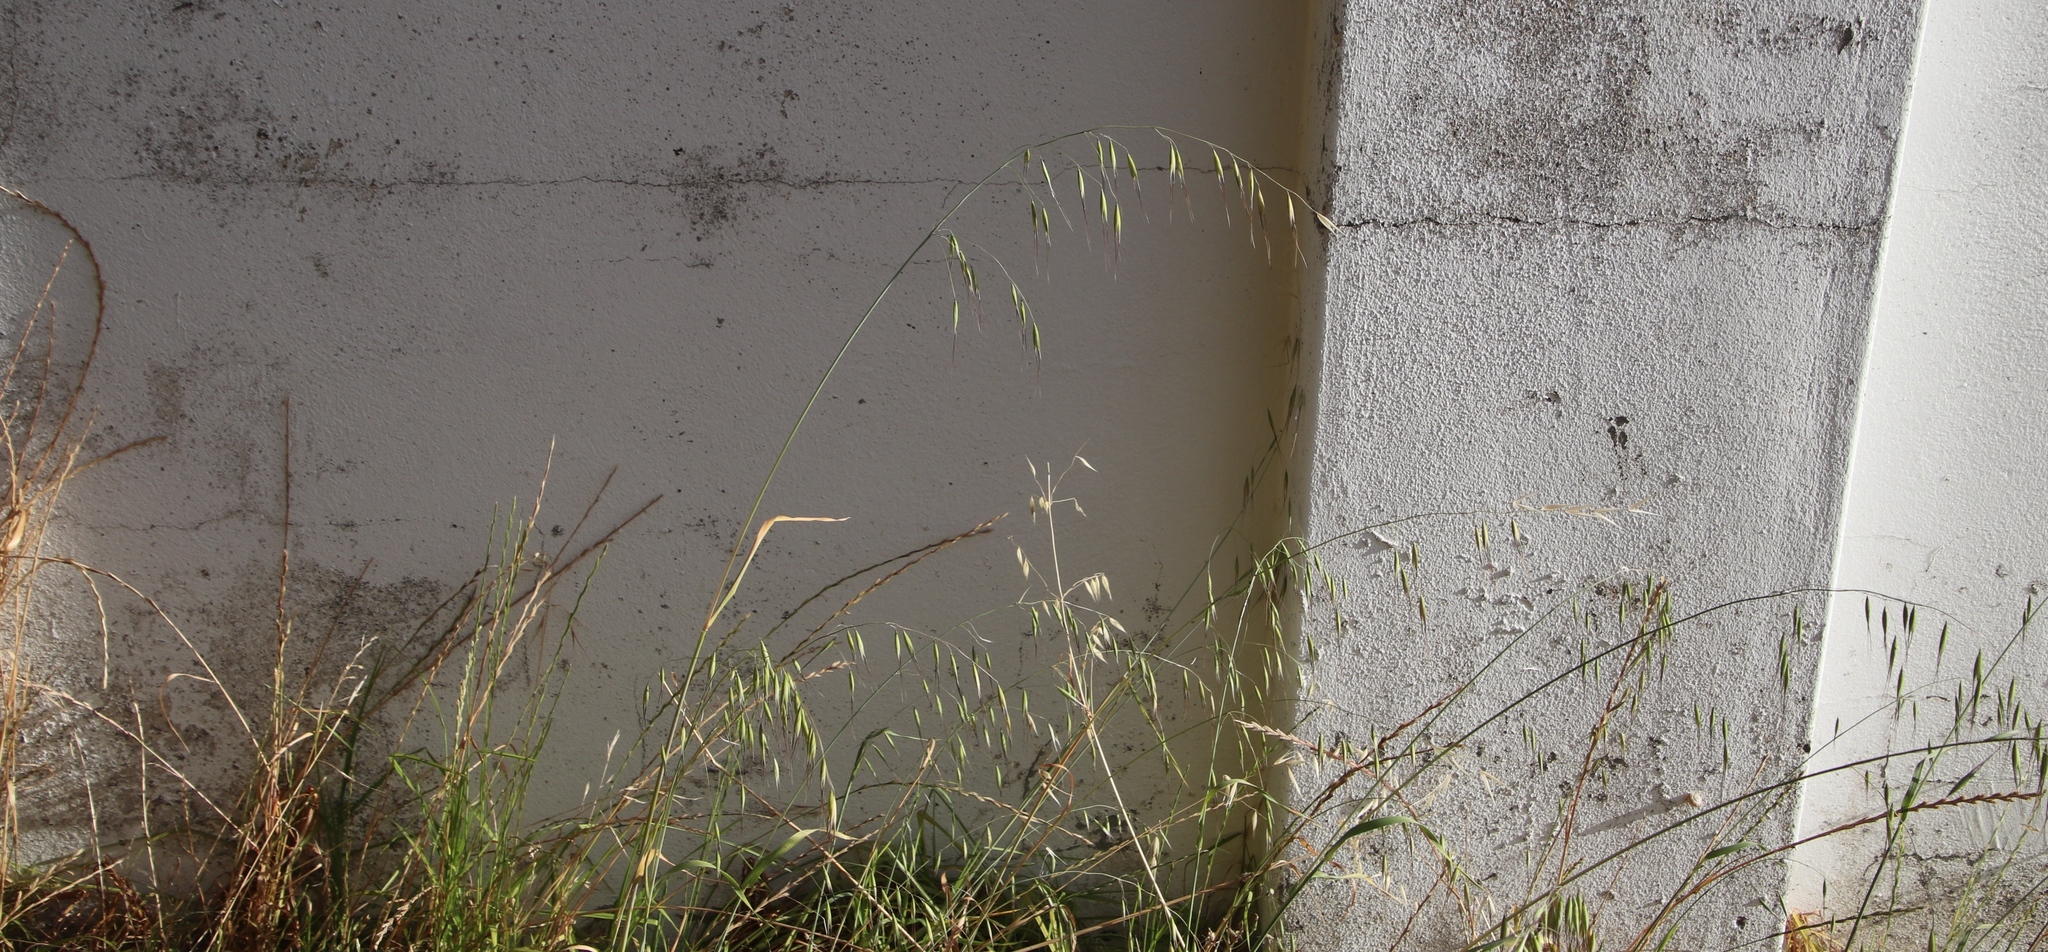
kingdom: Plantae
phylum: Tracheophyta
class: Liliopsida
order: Poales
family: Poaceae
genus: Avena
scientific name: Avena fatua
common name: Wild oat
